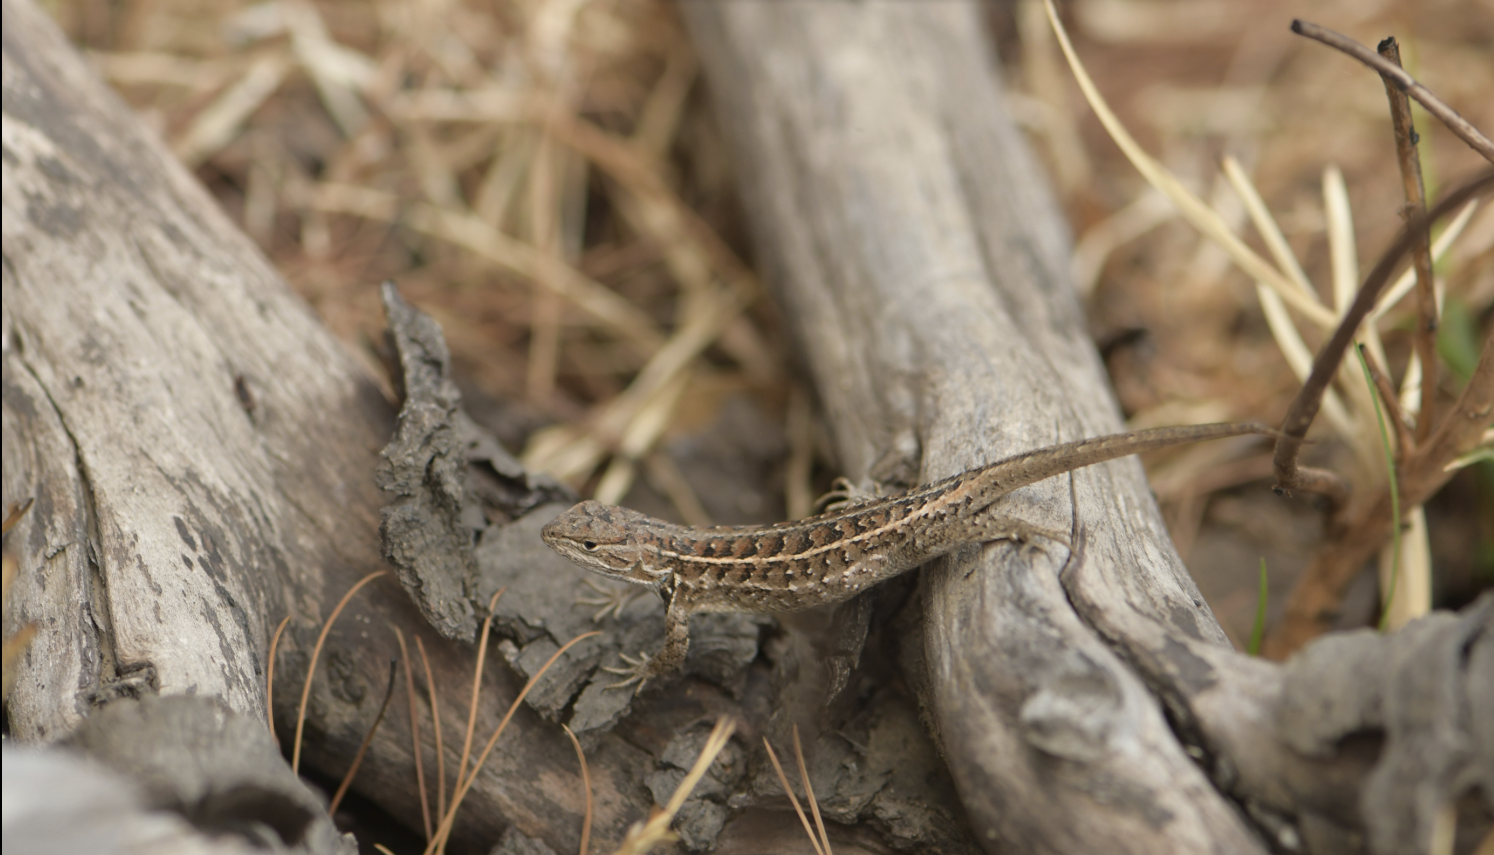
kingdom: Animalia
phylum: Chordata
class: Squamata
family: Phrynosomatidae
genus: Sceloporus
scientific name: Sceloporus scalaris
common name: Brown’s bunchgrass lizard [brownorum]
